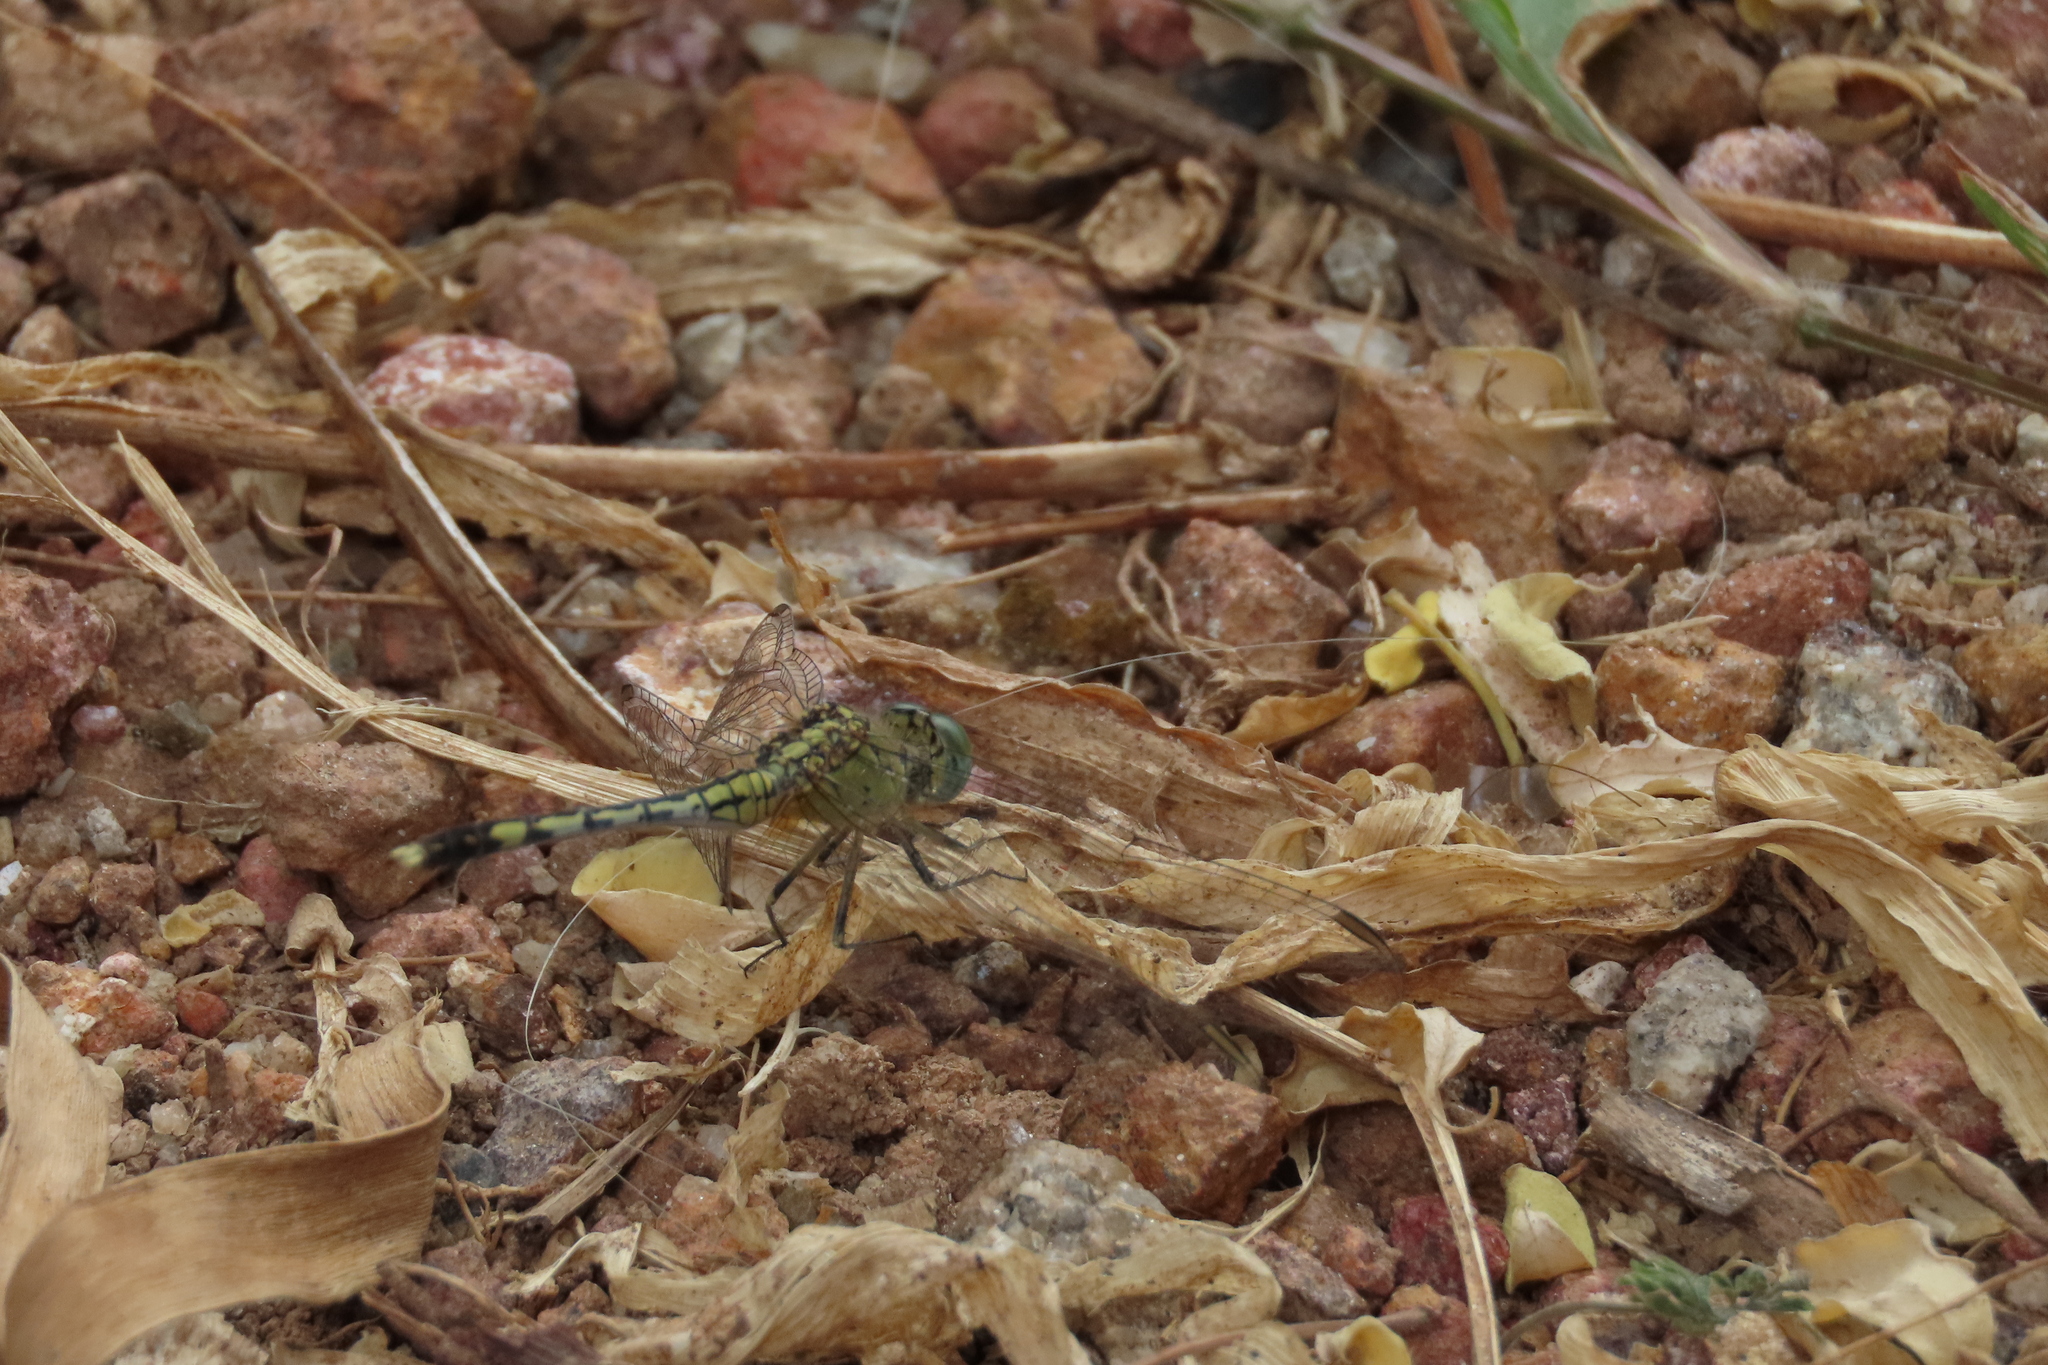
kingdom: Animalia
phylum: Arthropoda
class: Insecta
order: Odonata
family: Libellulidae
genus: Diplacodes
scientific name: Diplacodes trivialis
